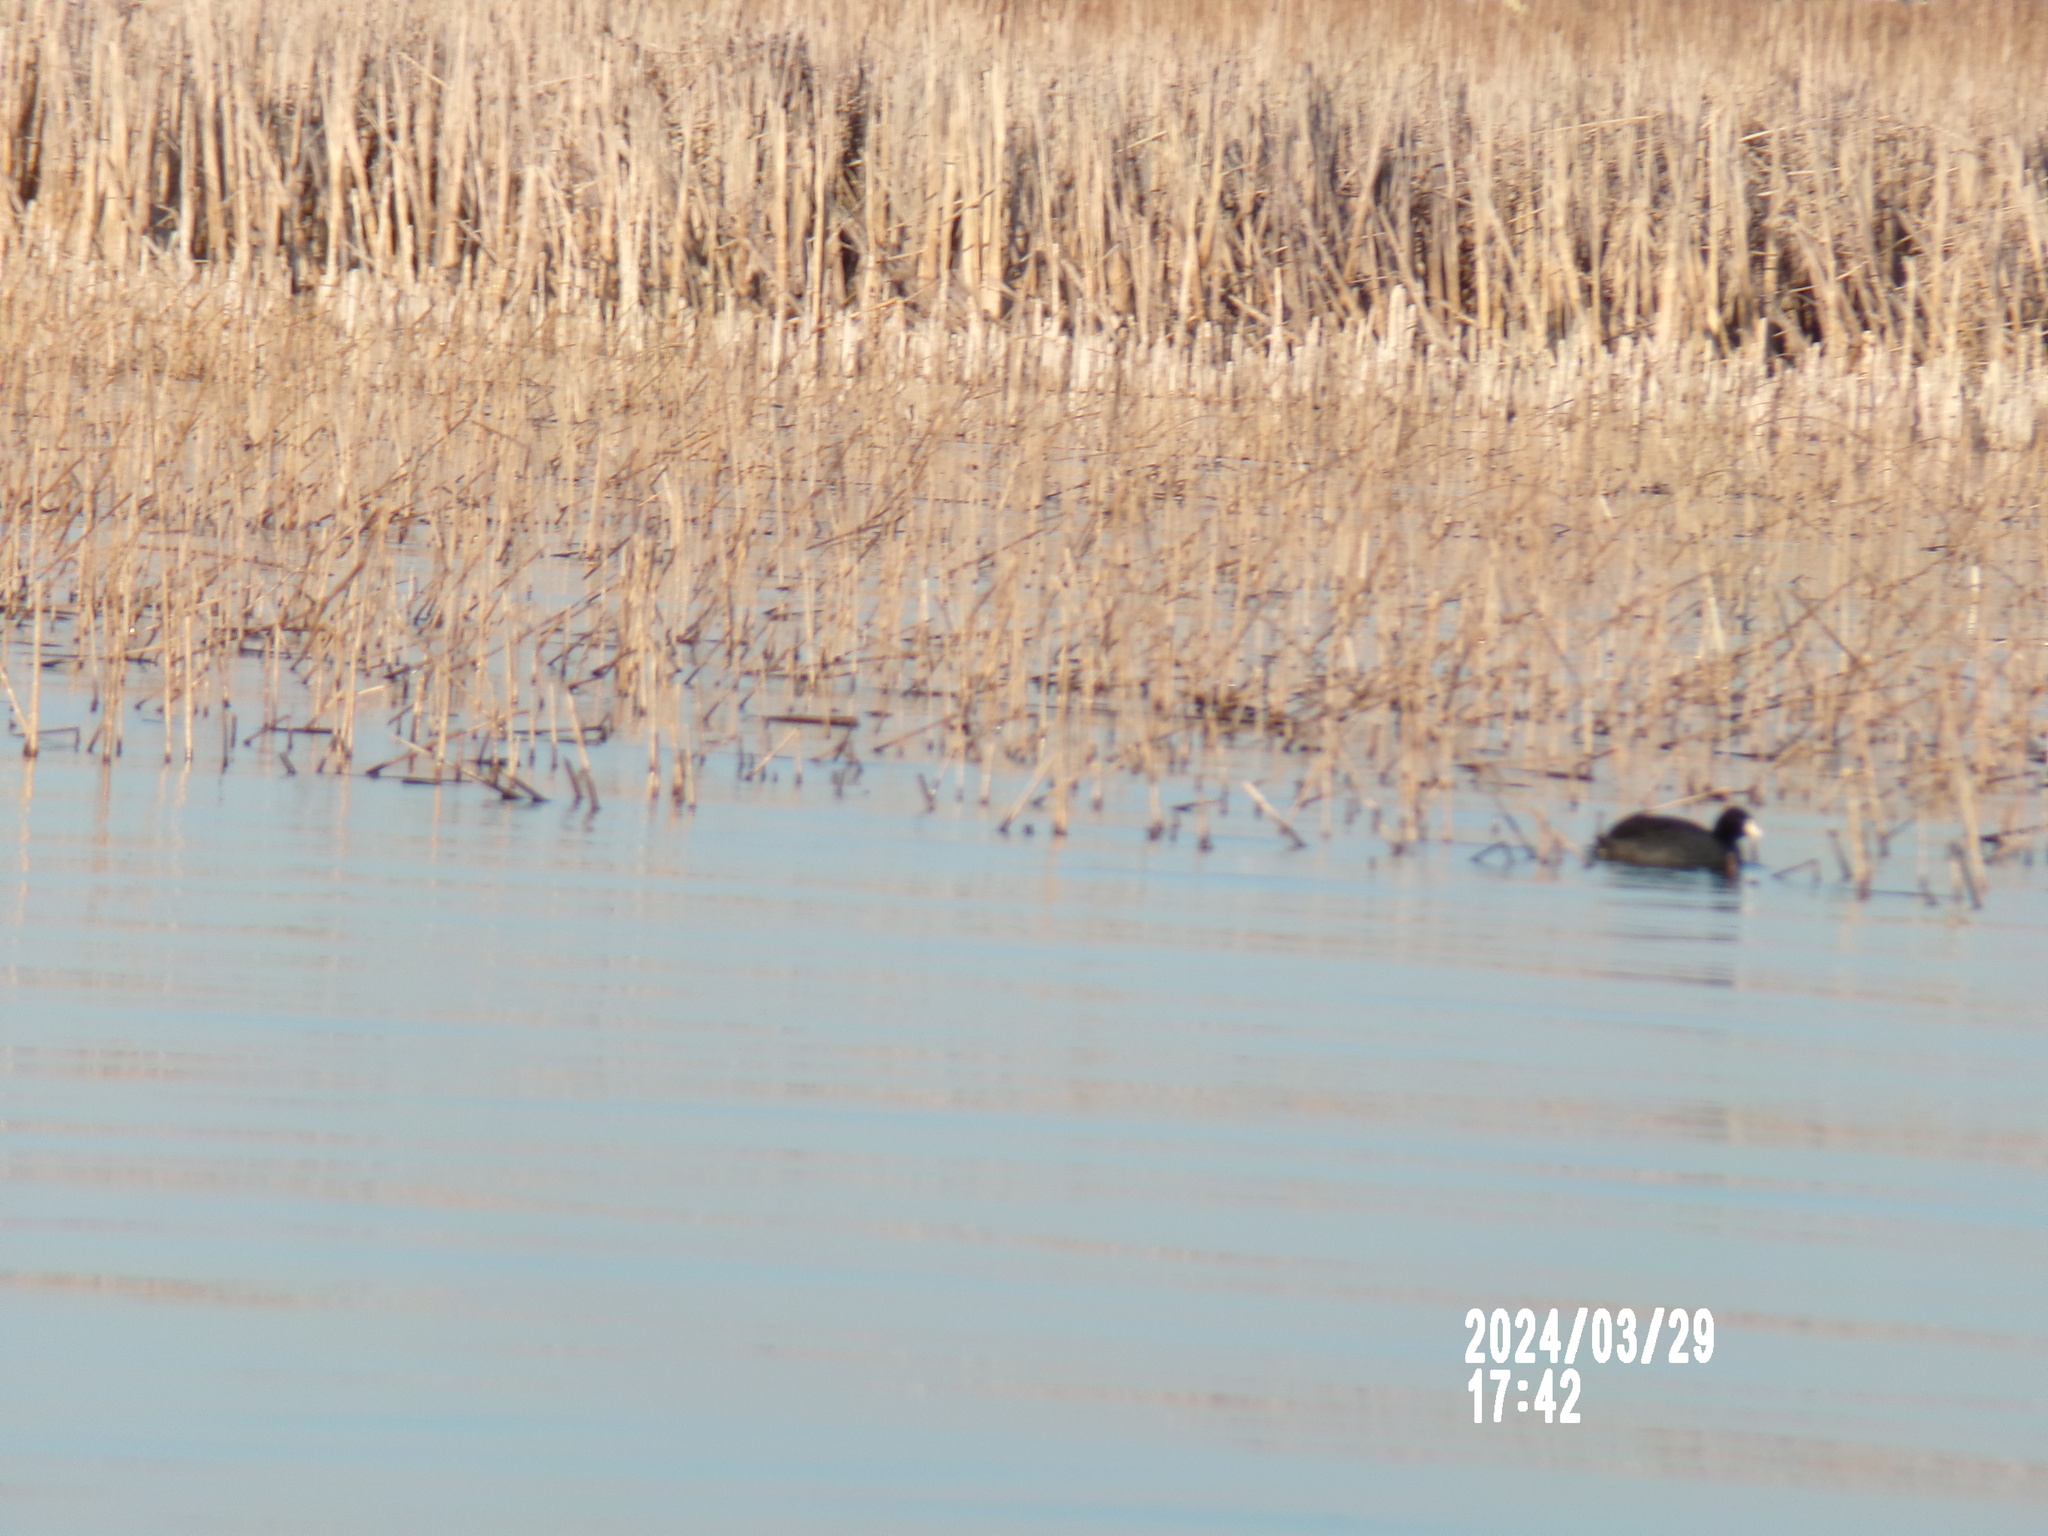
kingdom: Animalia
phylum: Chordata
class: Aves
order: Gruiformes
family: Rallidae
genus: Fulica
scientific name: Fulica americana
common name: American coot
